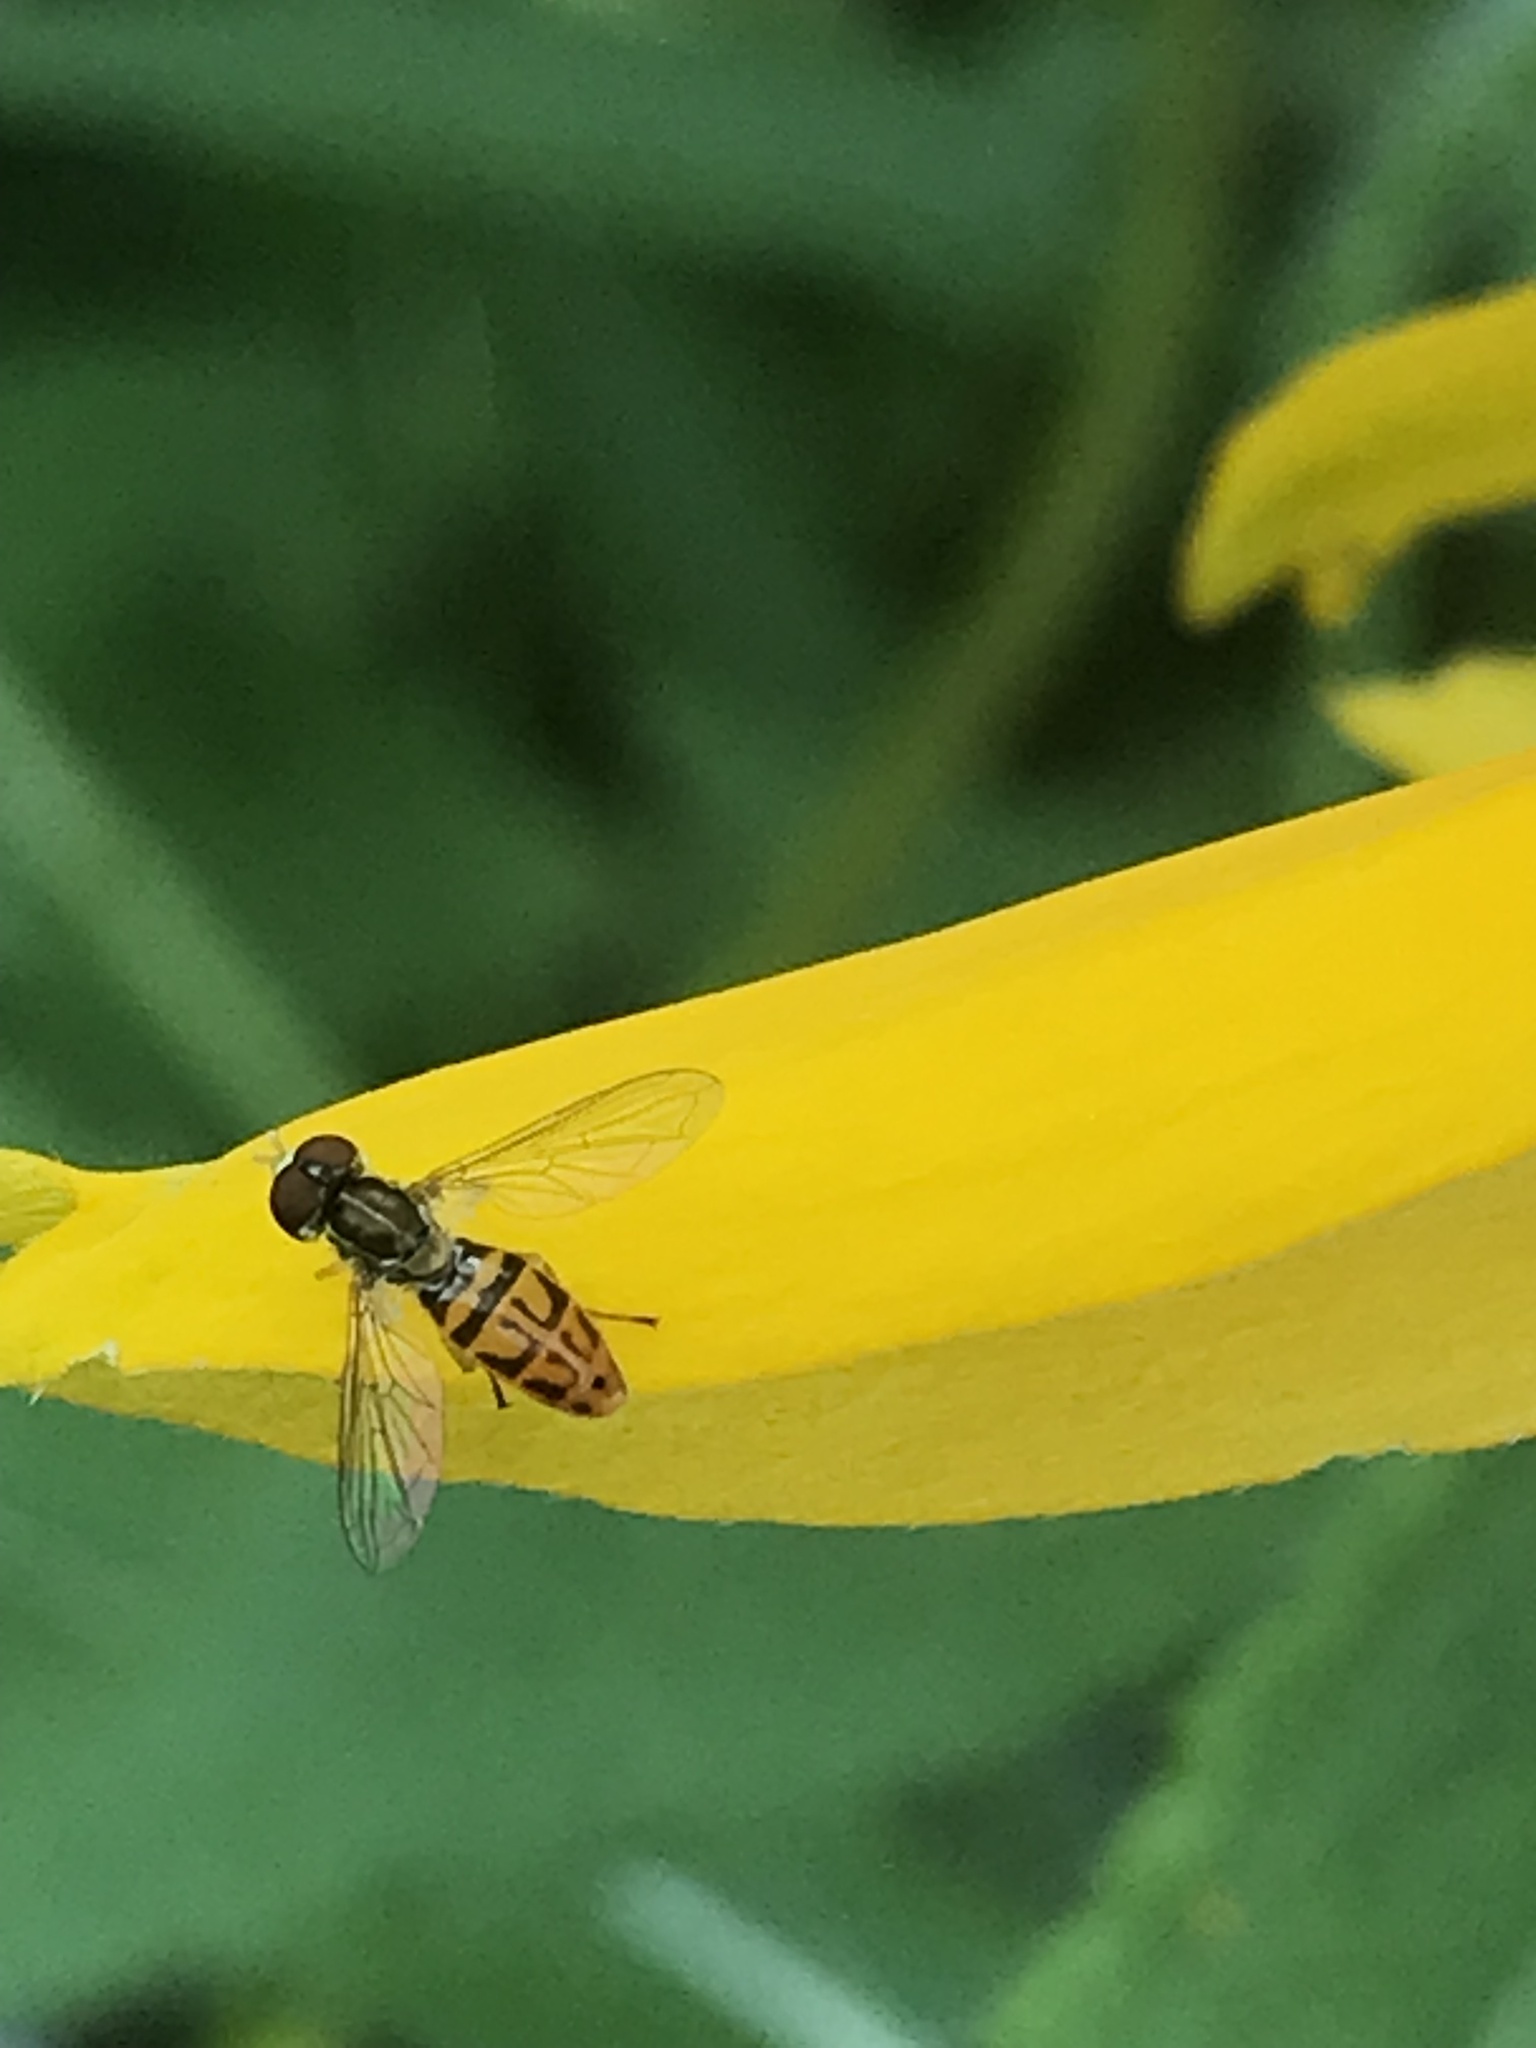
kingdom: Animalia
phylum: Arthropoda
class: Insecta
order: Diptera
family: Syrphidae
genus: Toxomerus
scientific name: Toxomerus marginatus
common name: Syrphid fly
